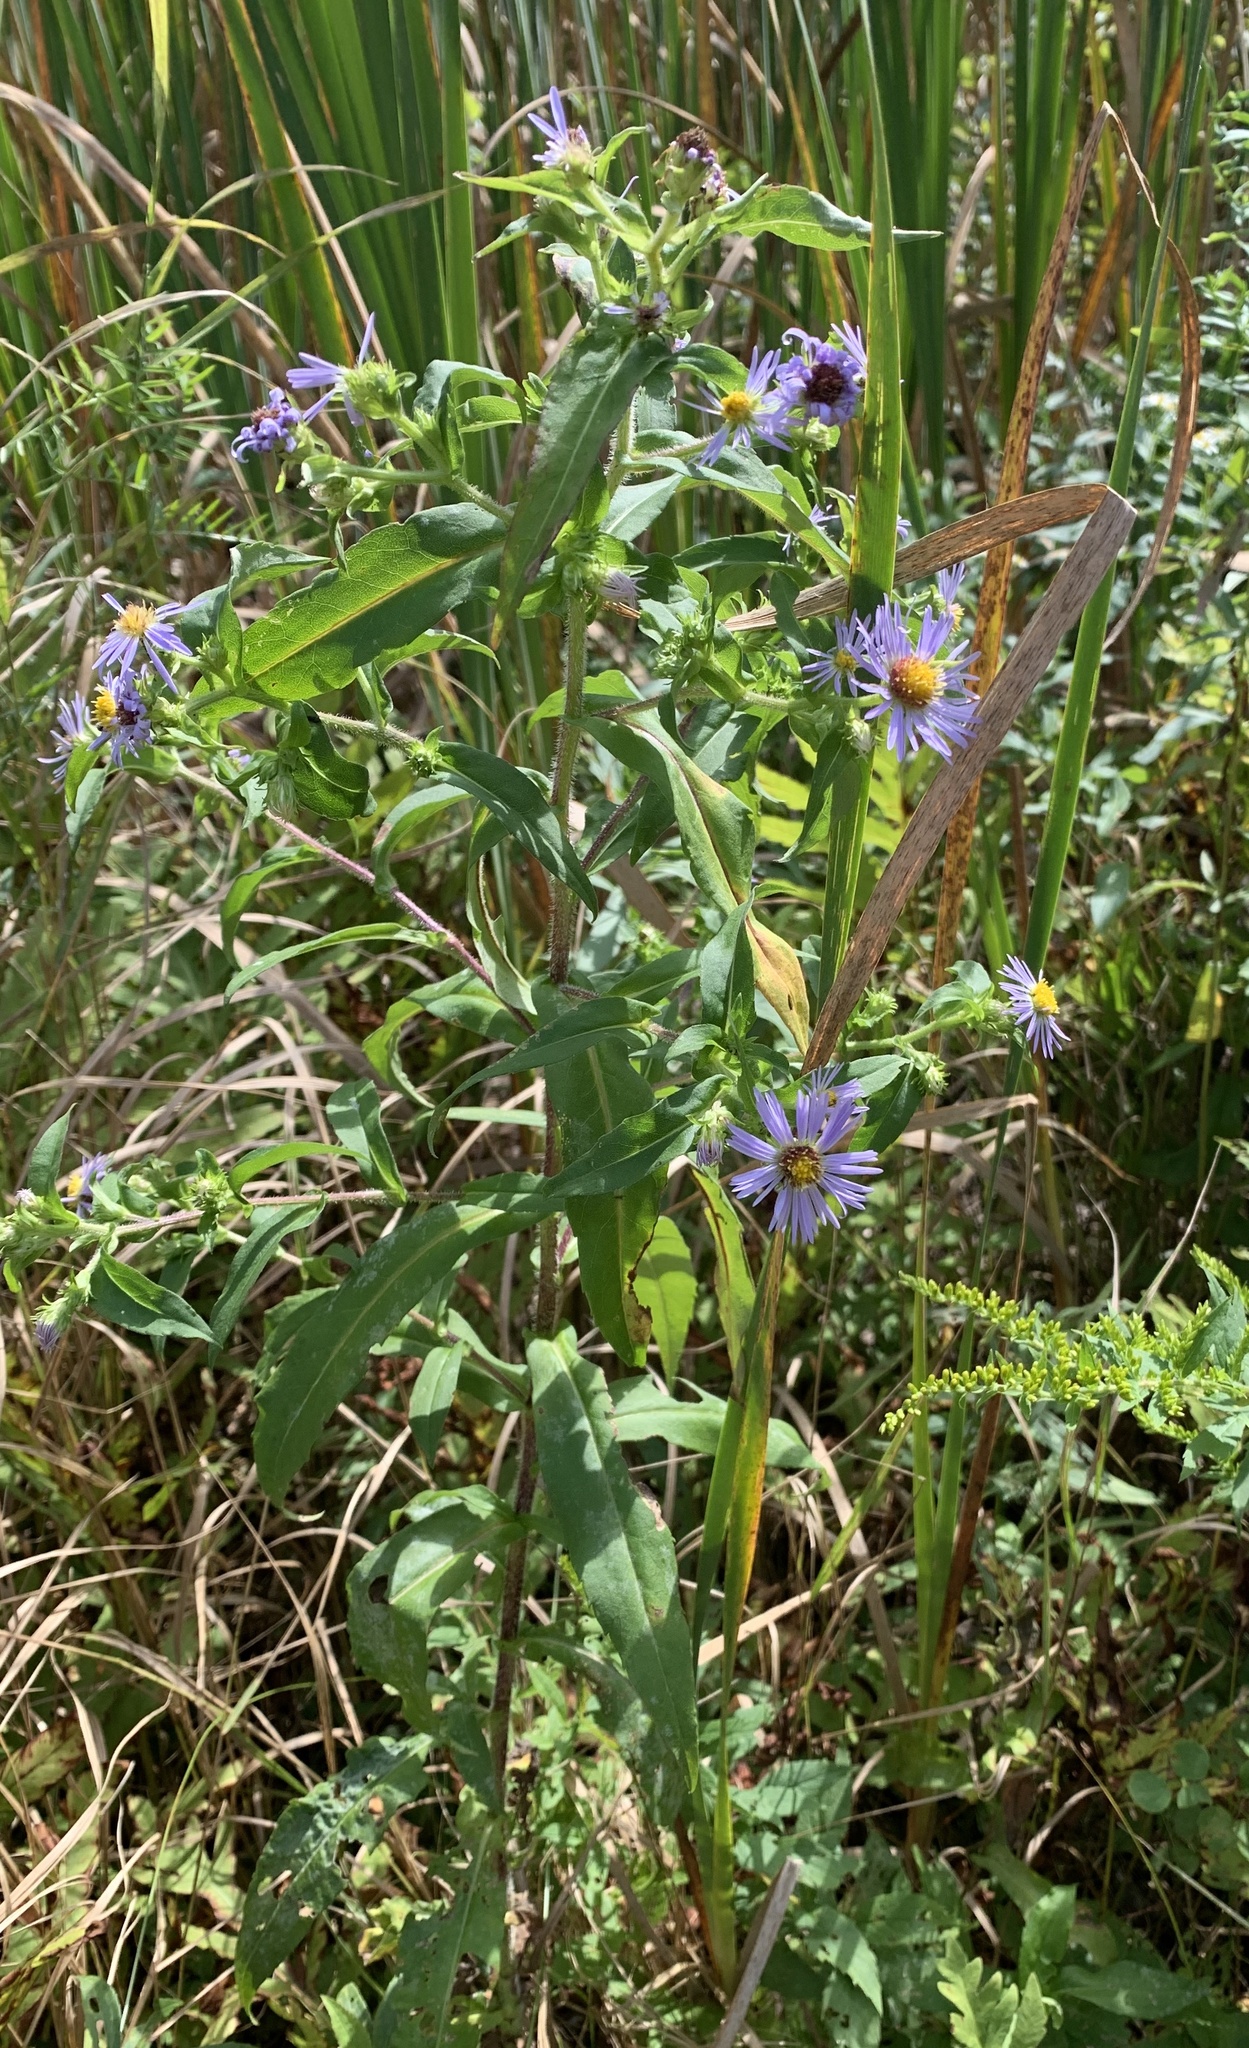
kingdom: Plantae
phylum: Tracheophyta
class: Magnoliopsida
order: Asterales
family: Asteraceae
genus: Symphyotrichum
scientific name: Symphyotrichum puniceum
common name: Bog aster
